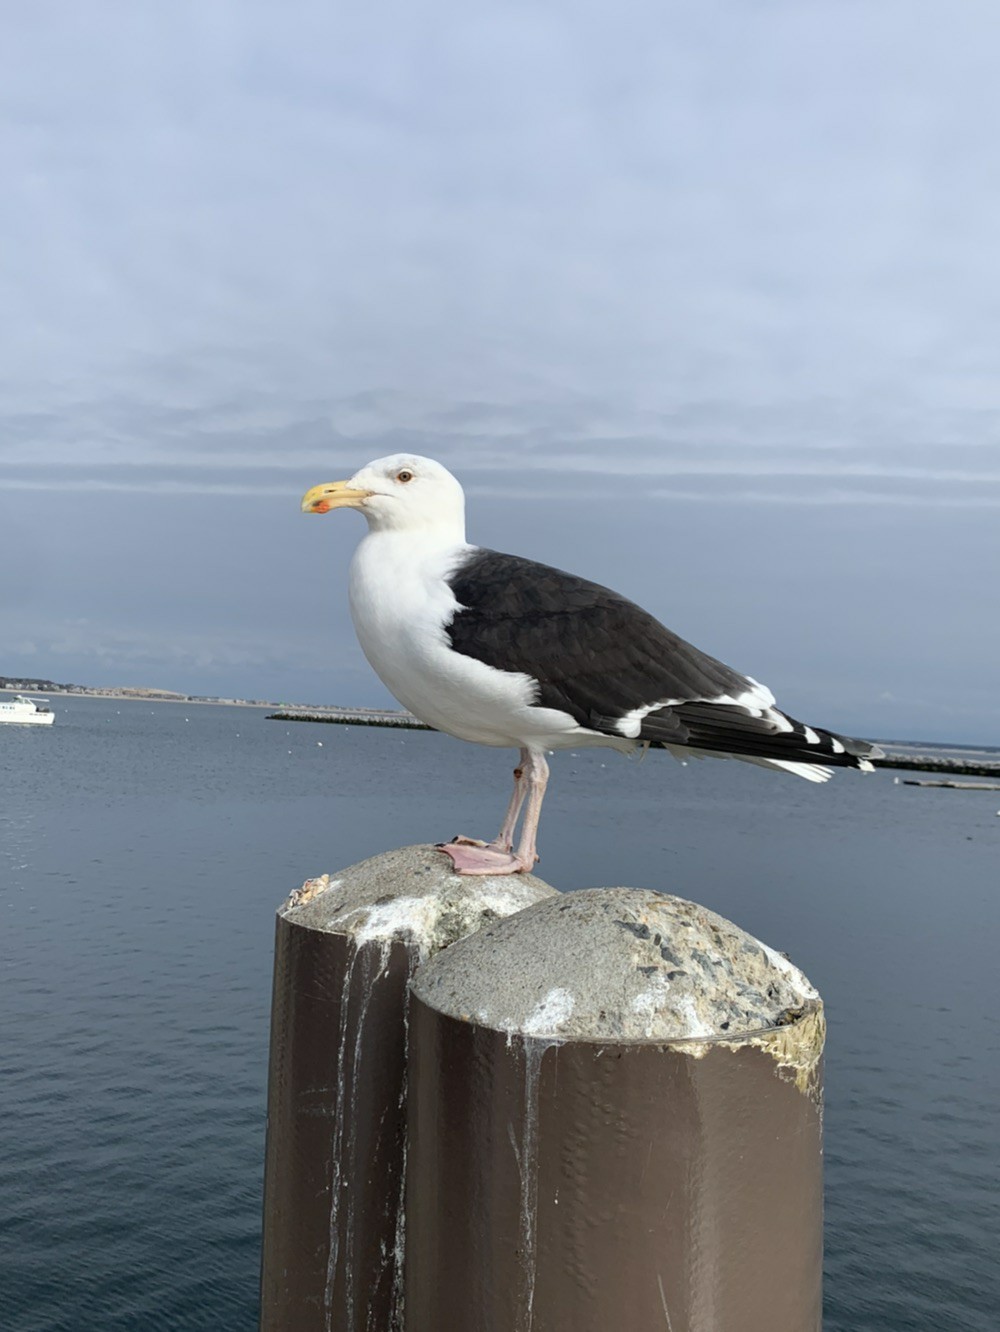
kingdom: Animalia
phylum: Chordata
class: Aves
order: Charadriiformes
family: Laridae
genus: Larus
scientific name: Larus marinus
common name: Great black-backed gull
